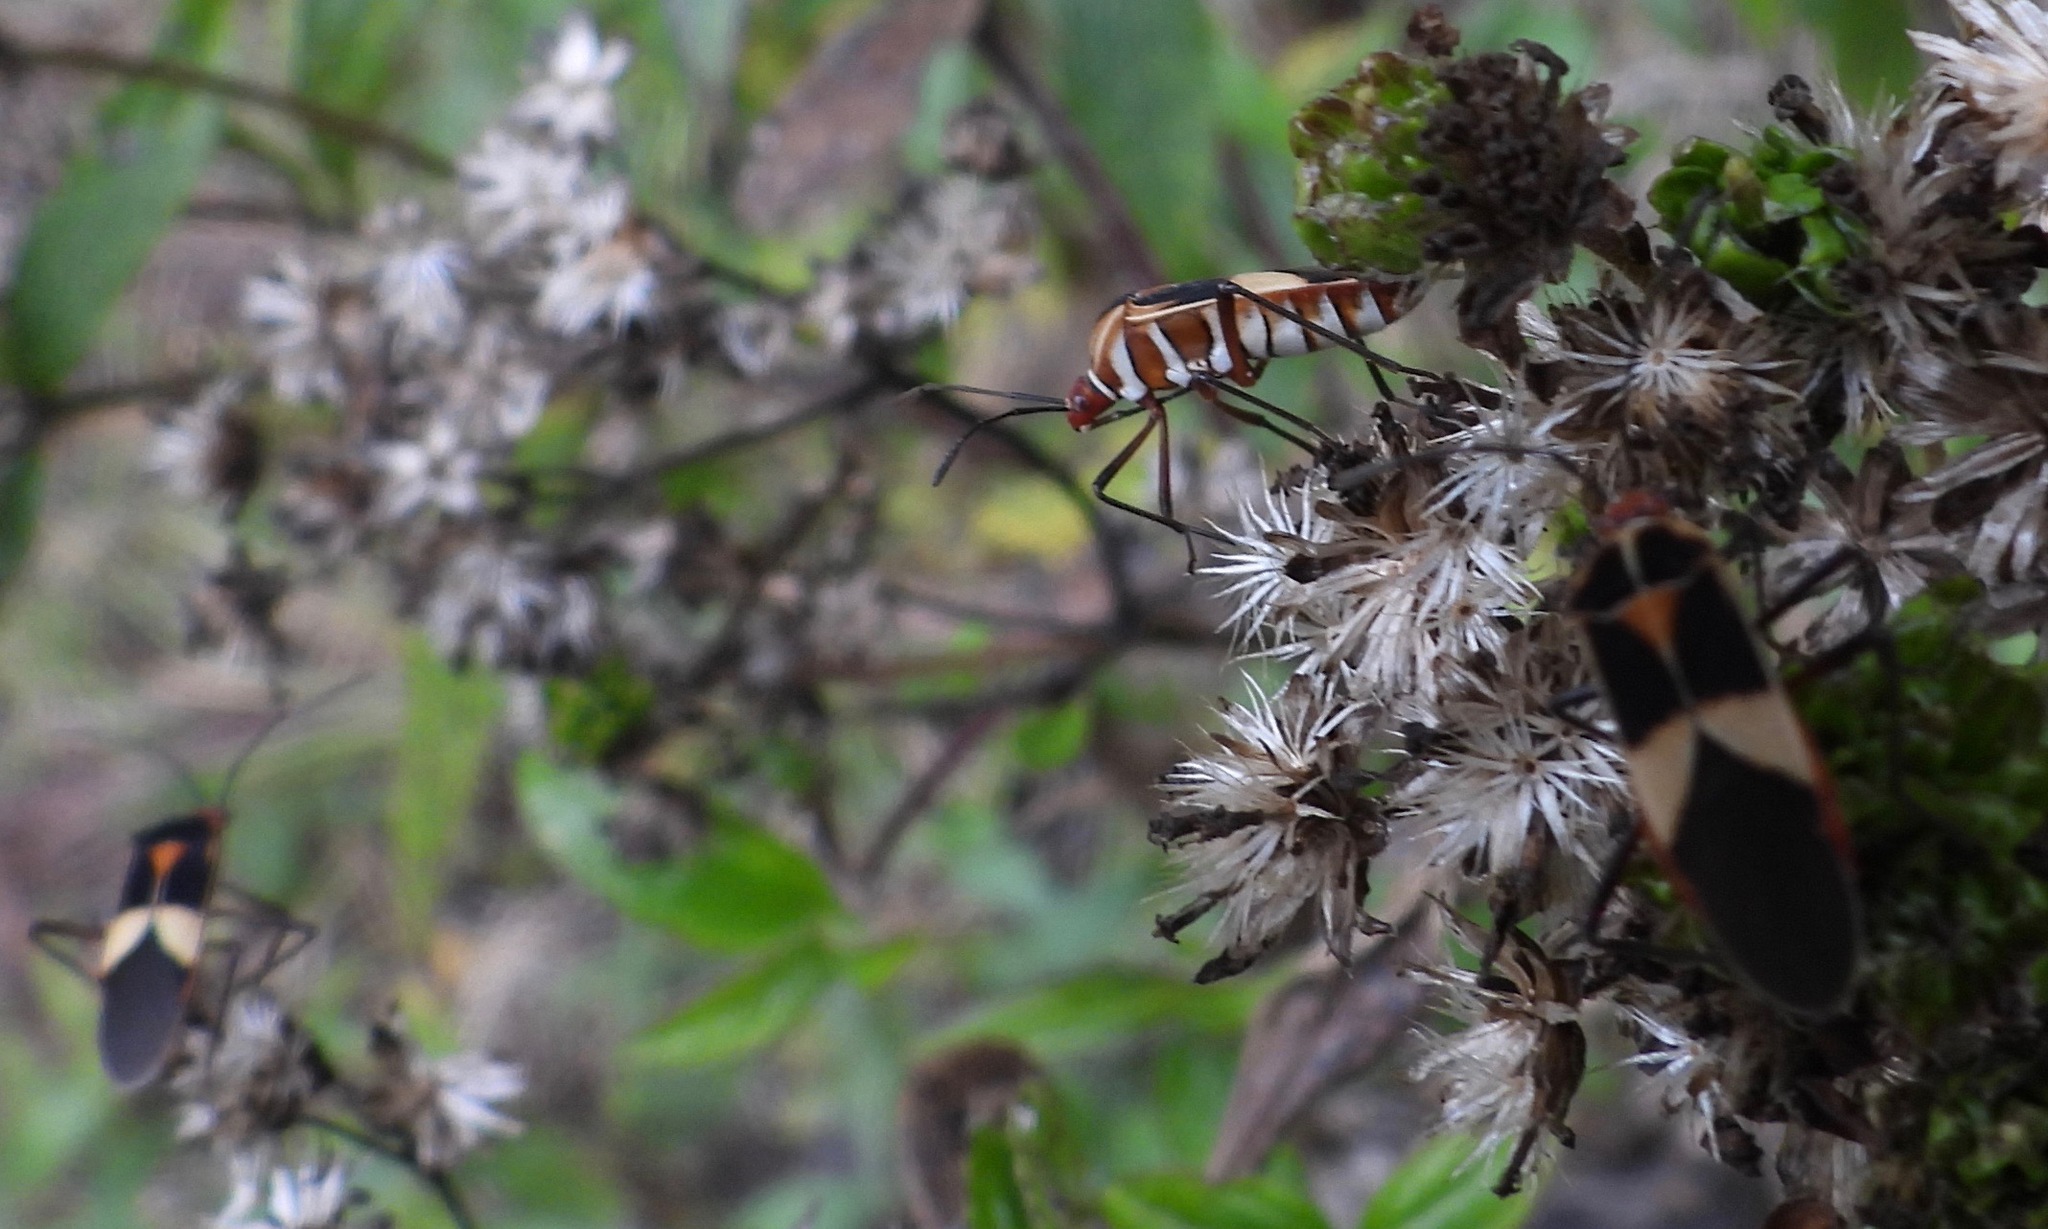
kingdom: Animalia
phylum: Arthropoda
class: Insecta
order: Hemiptera
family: Coreidae
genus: Hypselonotus
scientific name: Hypselonotus interruptus
